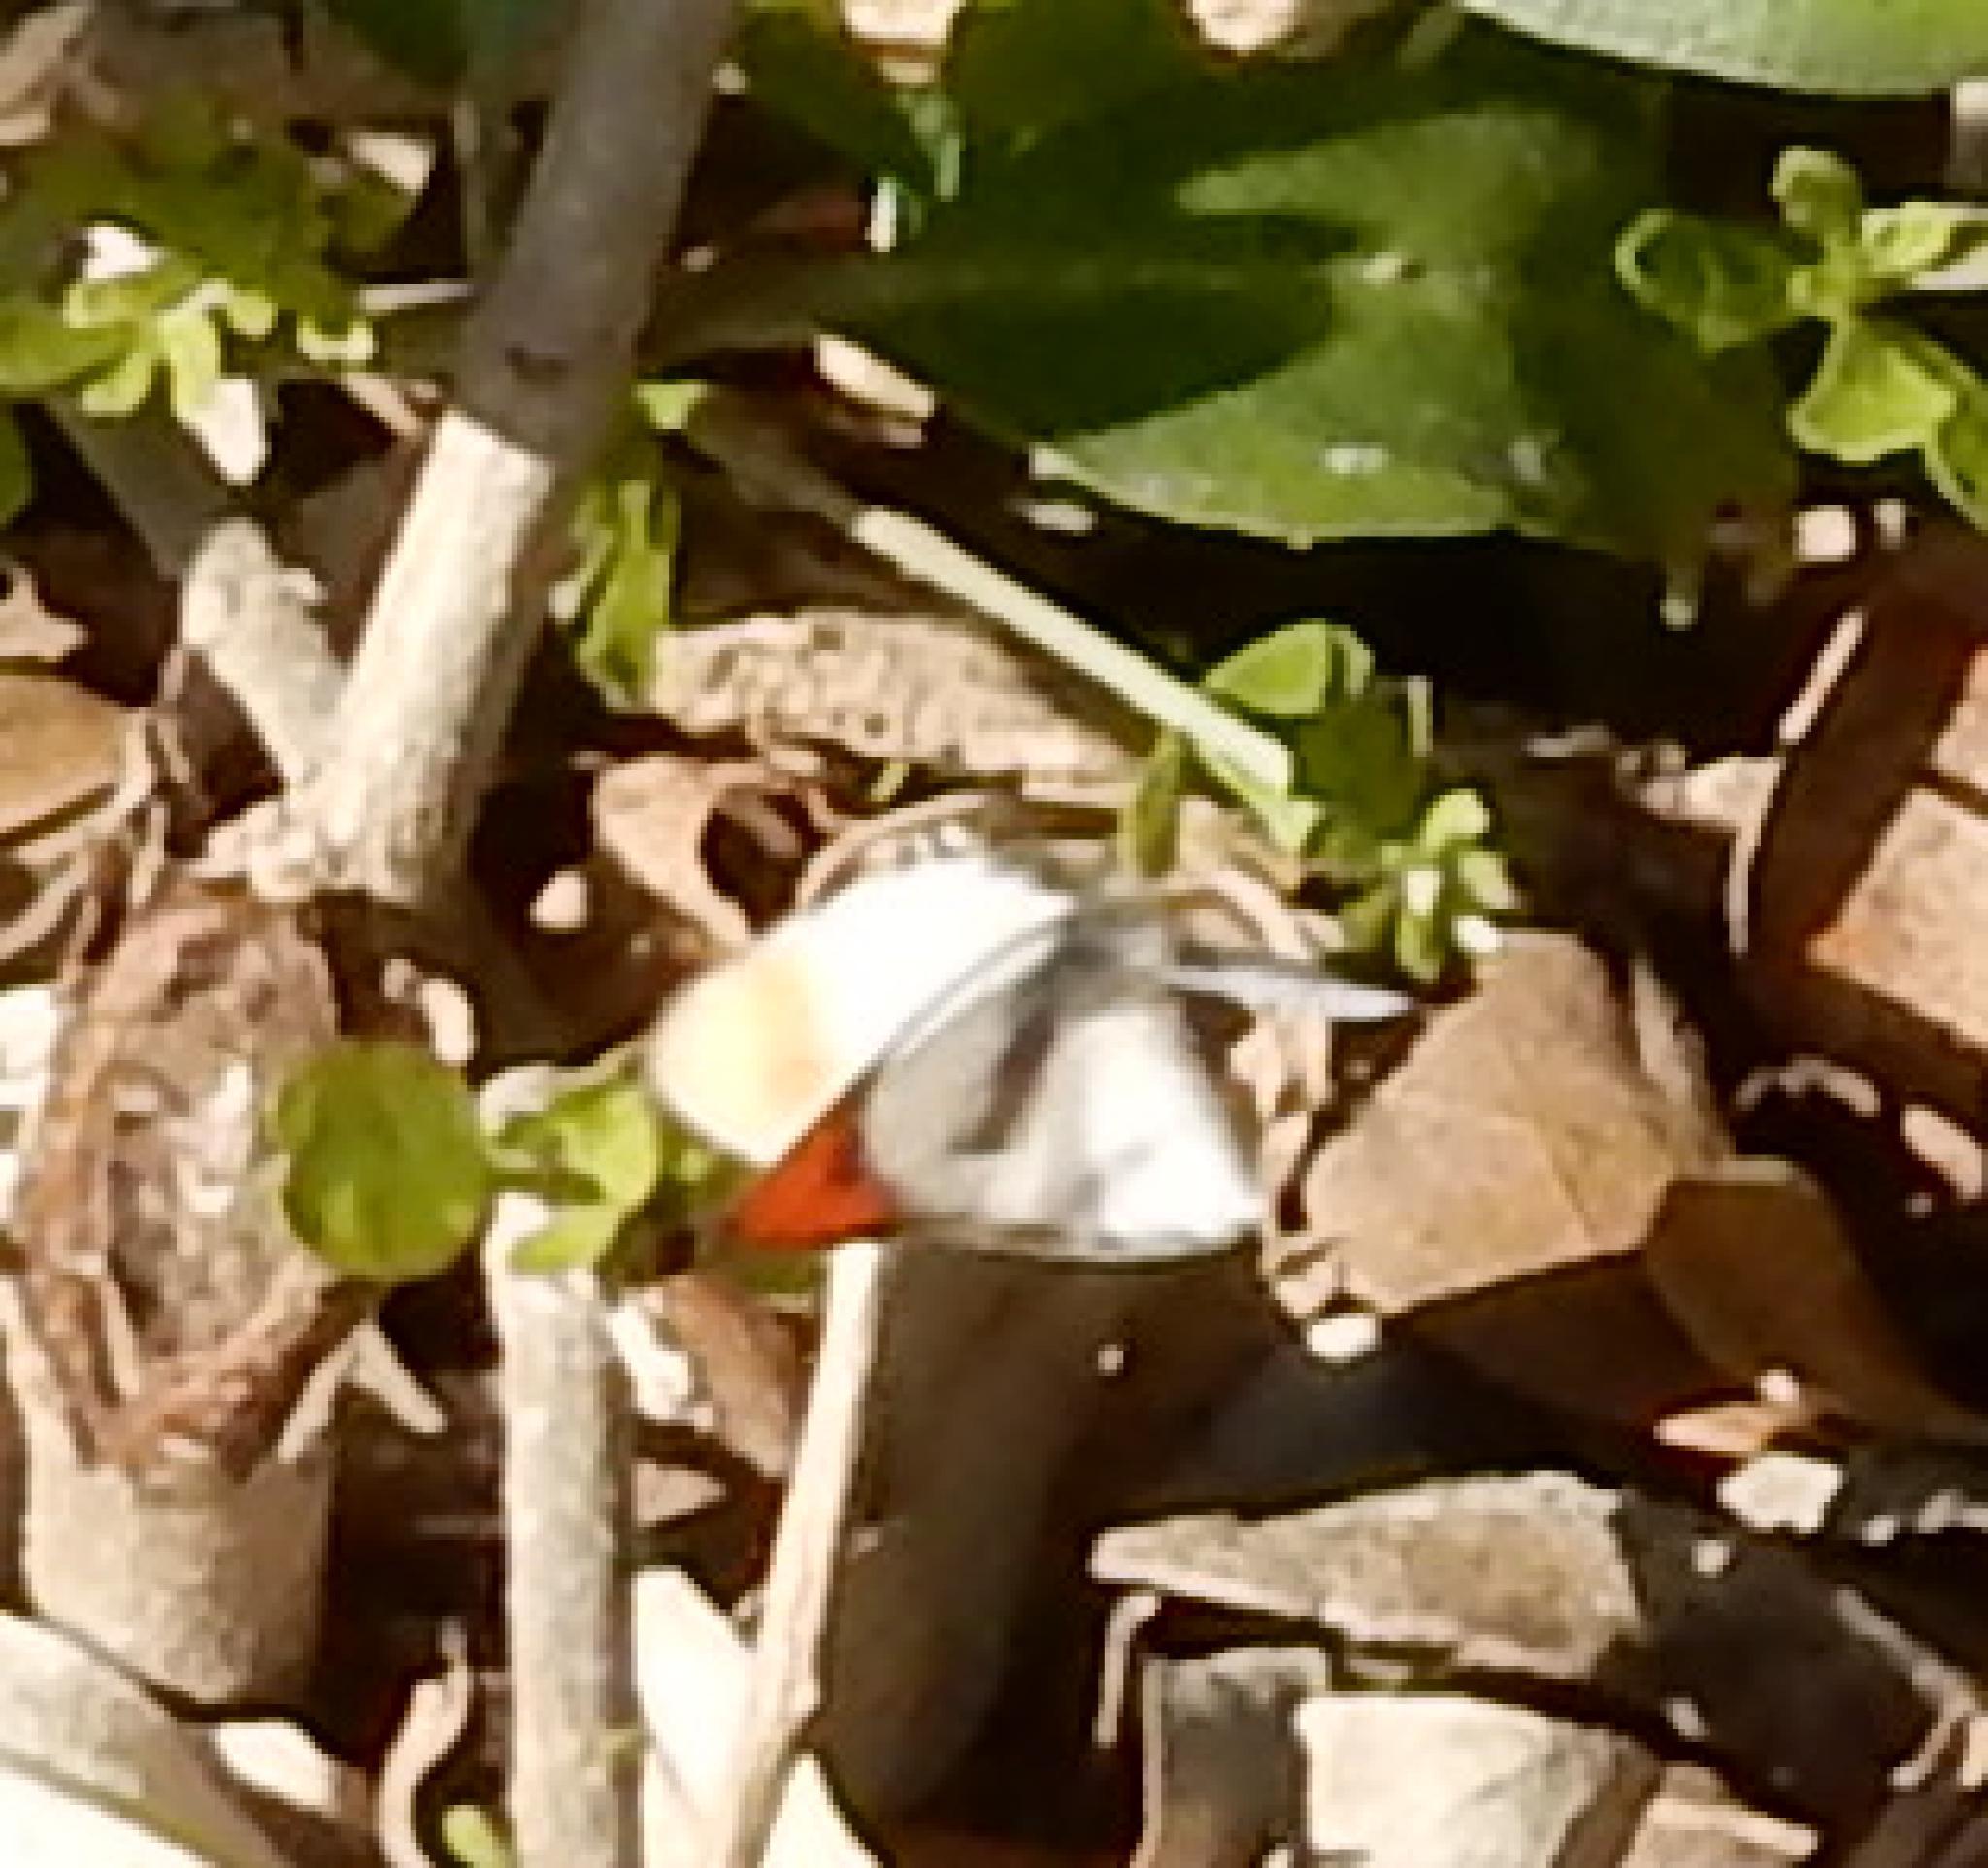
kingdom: Animalia
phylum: Arthropoda
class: Insecta
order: Lepidoptera
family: Pieridae
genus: Colotis
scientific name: Colotis euippe
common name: Round-winged orange tip
